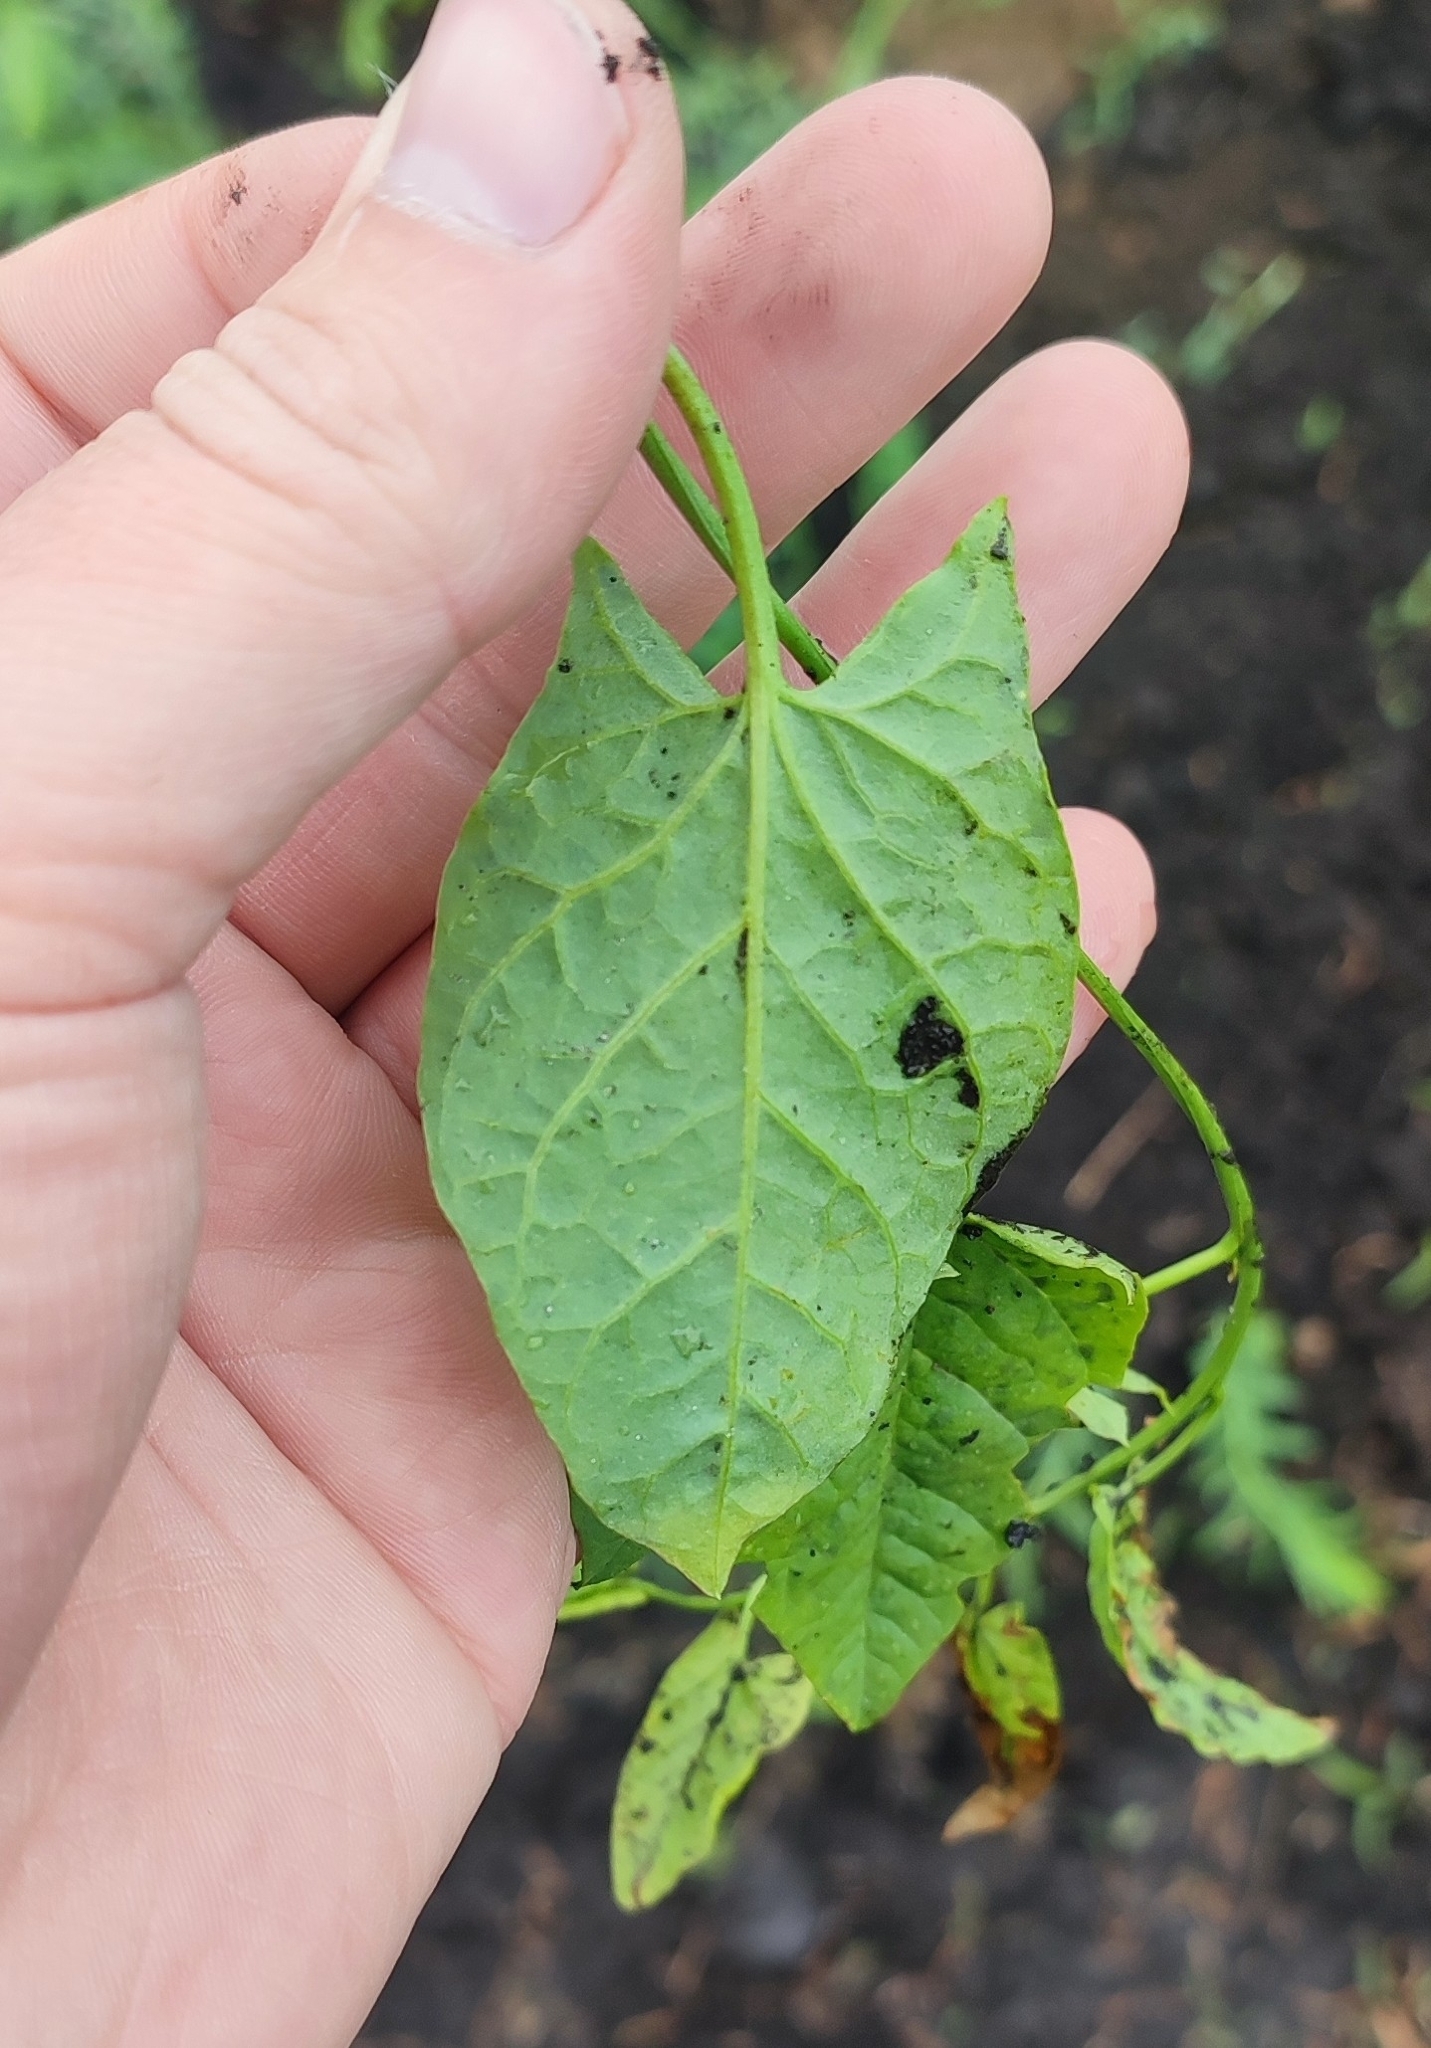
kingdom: Plantae
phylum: Tracheophyta
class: Magnoliopsida
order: Solanales
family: Convolvulaceae
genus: Convolvulus
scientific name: Convolvulus arvensis
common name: Field bindweed
